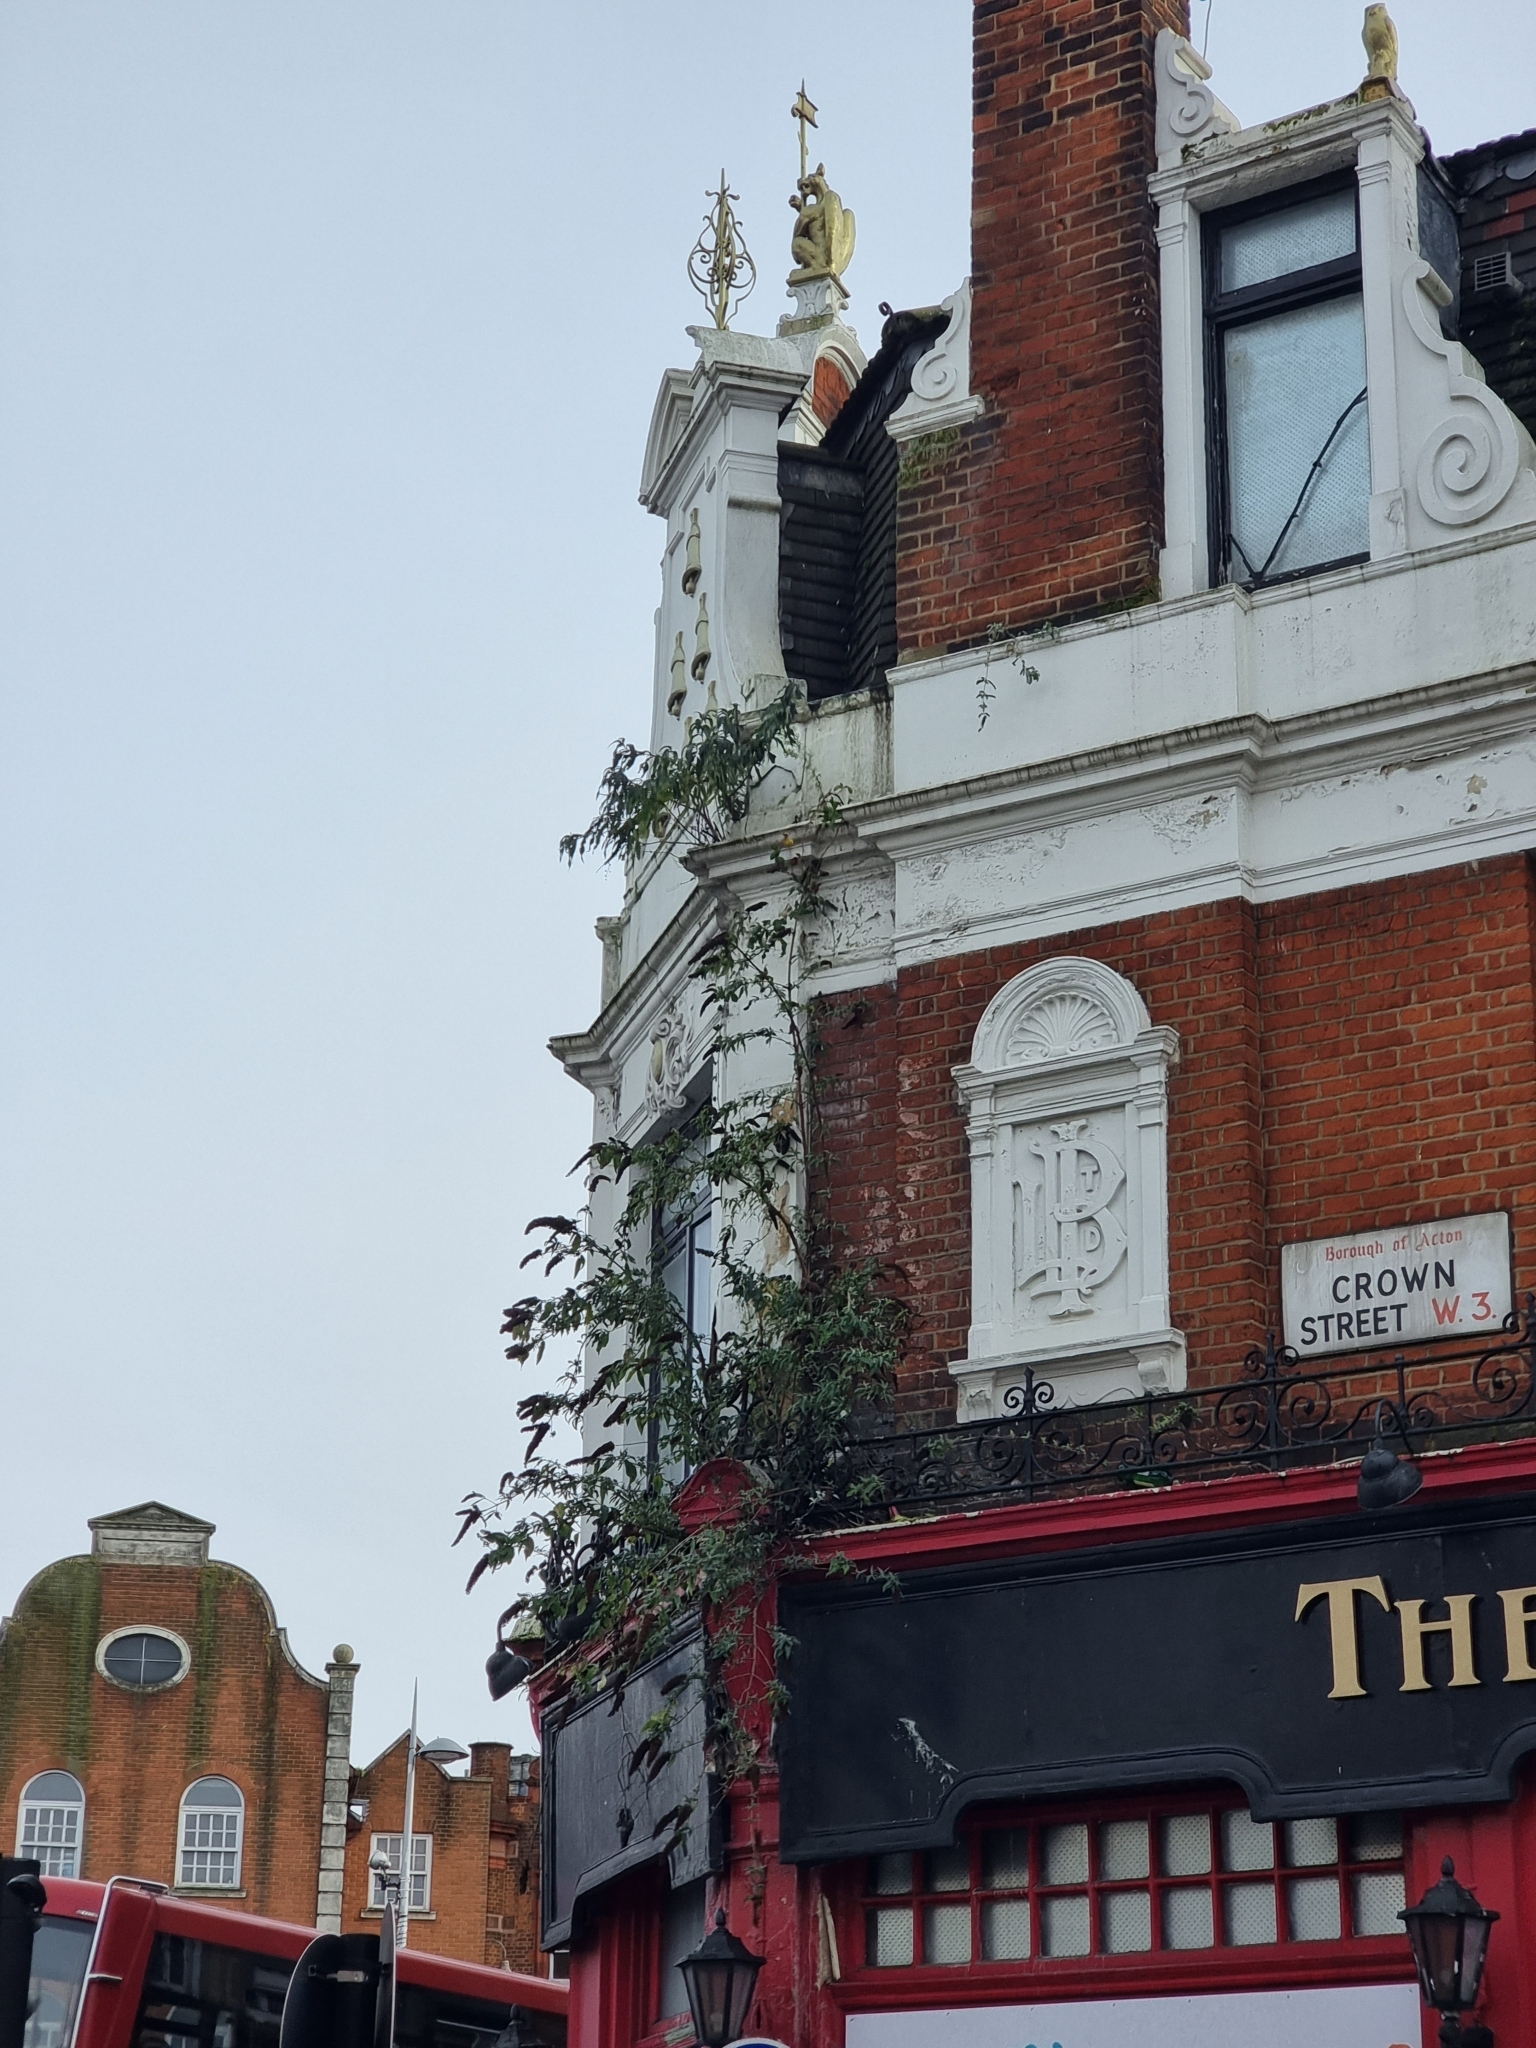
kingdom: Plantae
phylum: Tracheophyta
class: Magnoliopsida
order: Lamiales
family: Scrophulariaceae
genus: Buddleja
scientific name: Buddleja davidii
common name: Butterfly-bush
